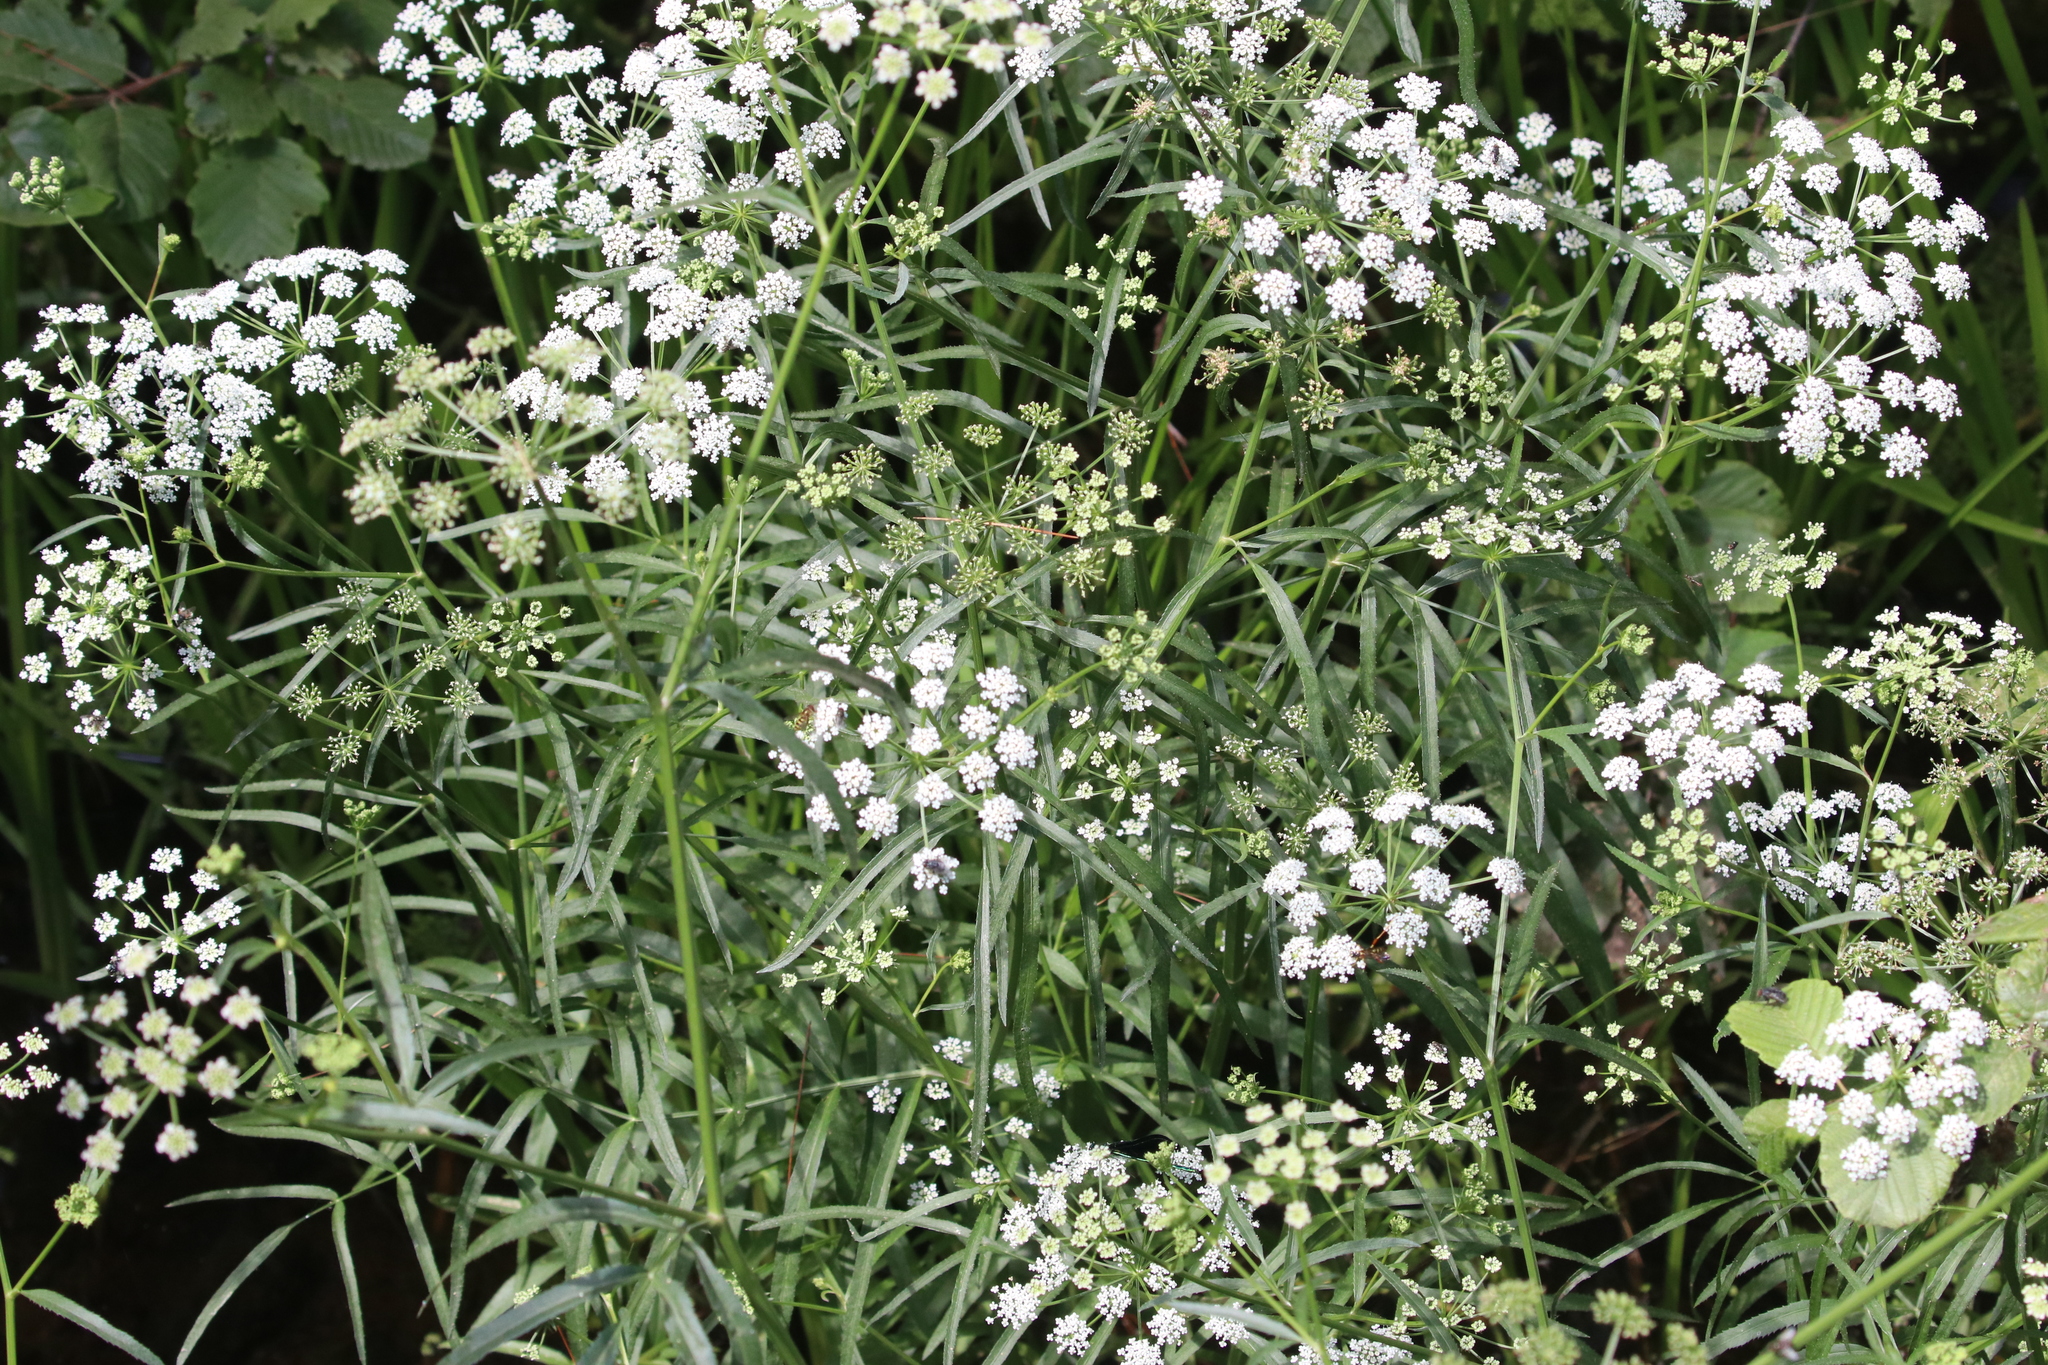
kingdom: Plantae
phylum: Tracheophyta
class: Magnoliopsida
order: Apiales
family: Apiaceae
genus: Sium
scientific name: Sium suave
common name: Hemlock water-parsnip
